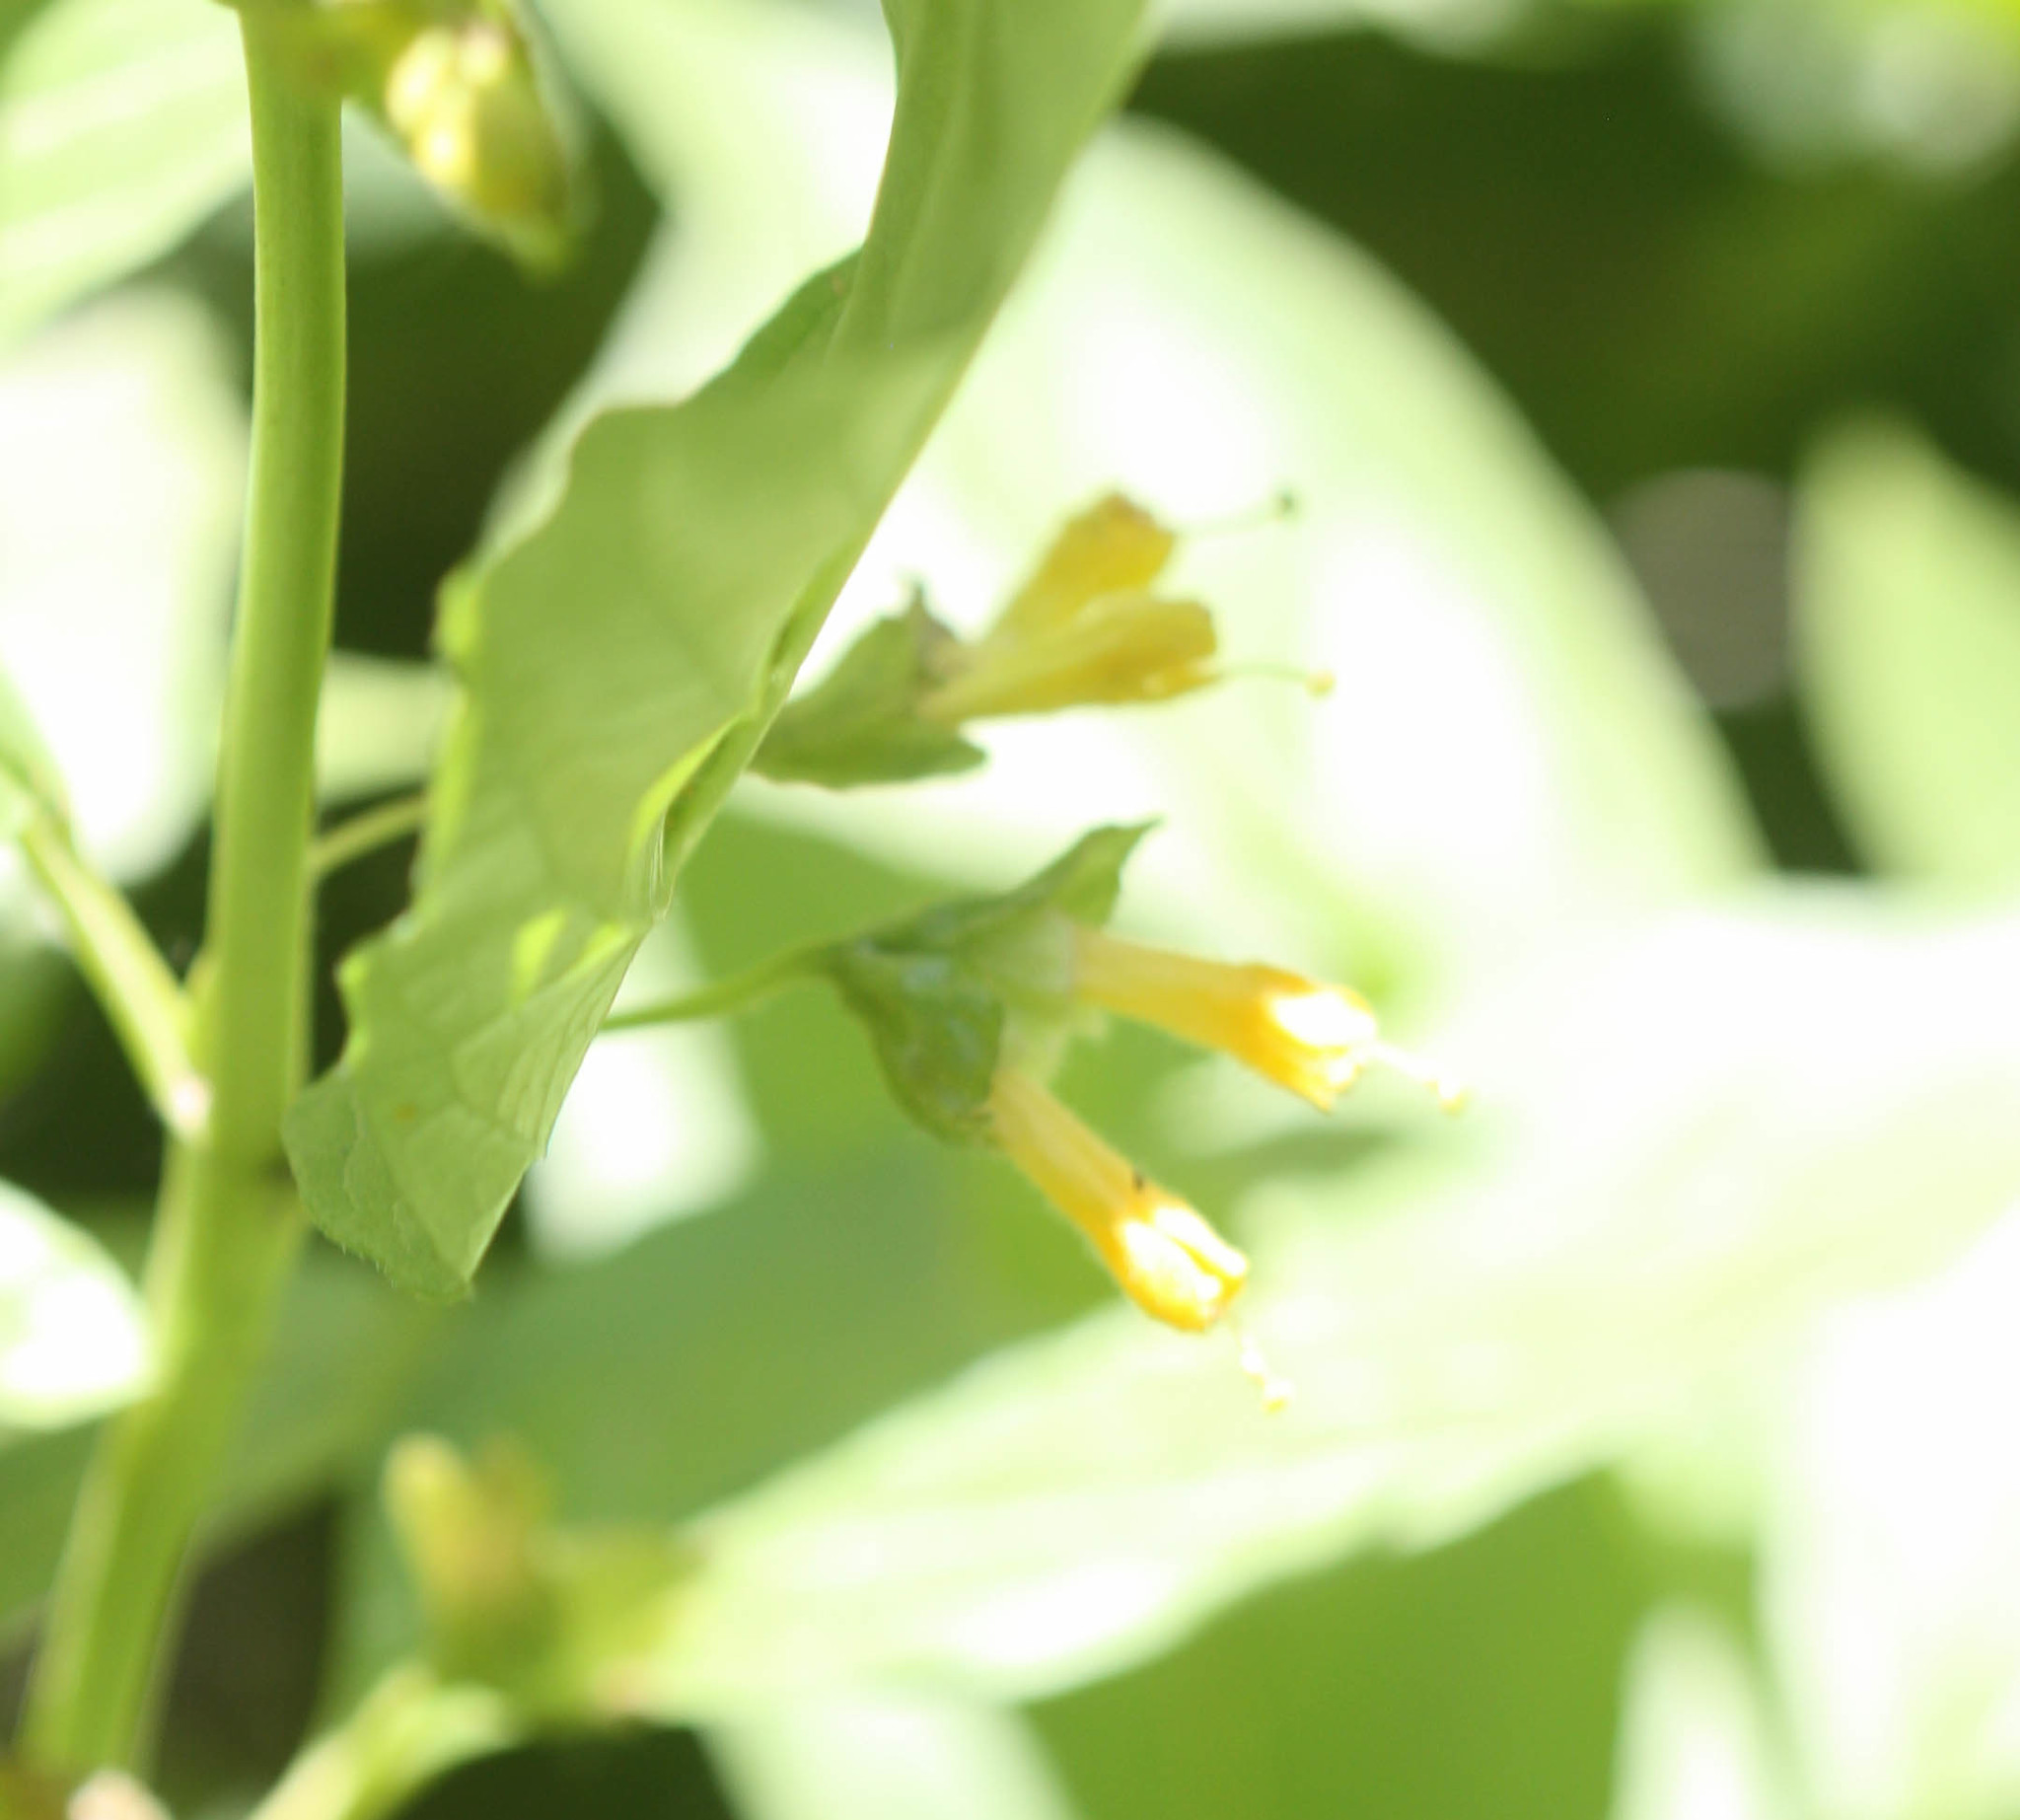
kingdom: Plantae
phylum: Tracheophyta
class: Magnoliopsida
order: Dipsacales
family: Caprifoliaceae
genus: Lonicera
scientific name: Lonicera involucrata
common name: Californian honeysuckle
